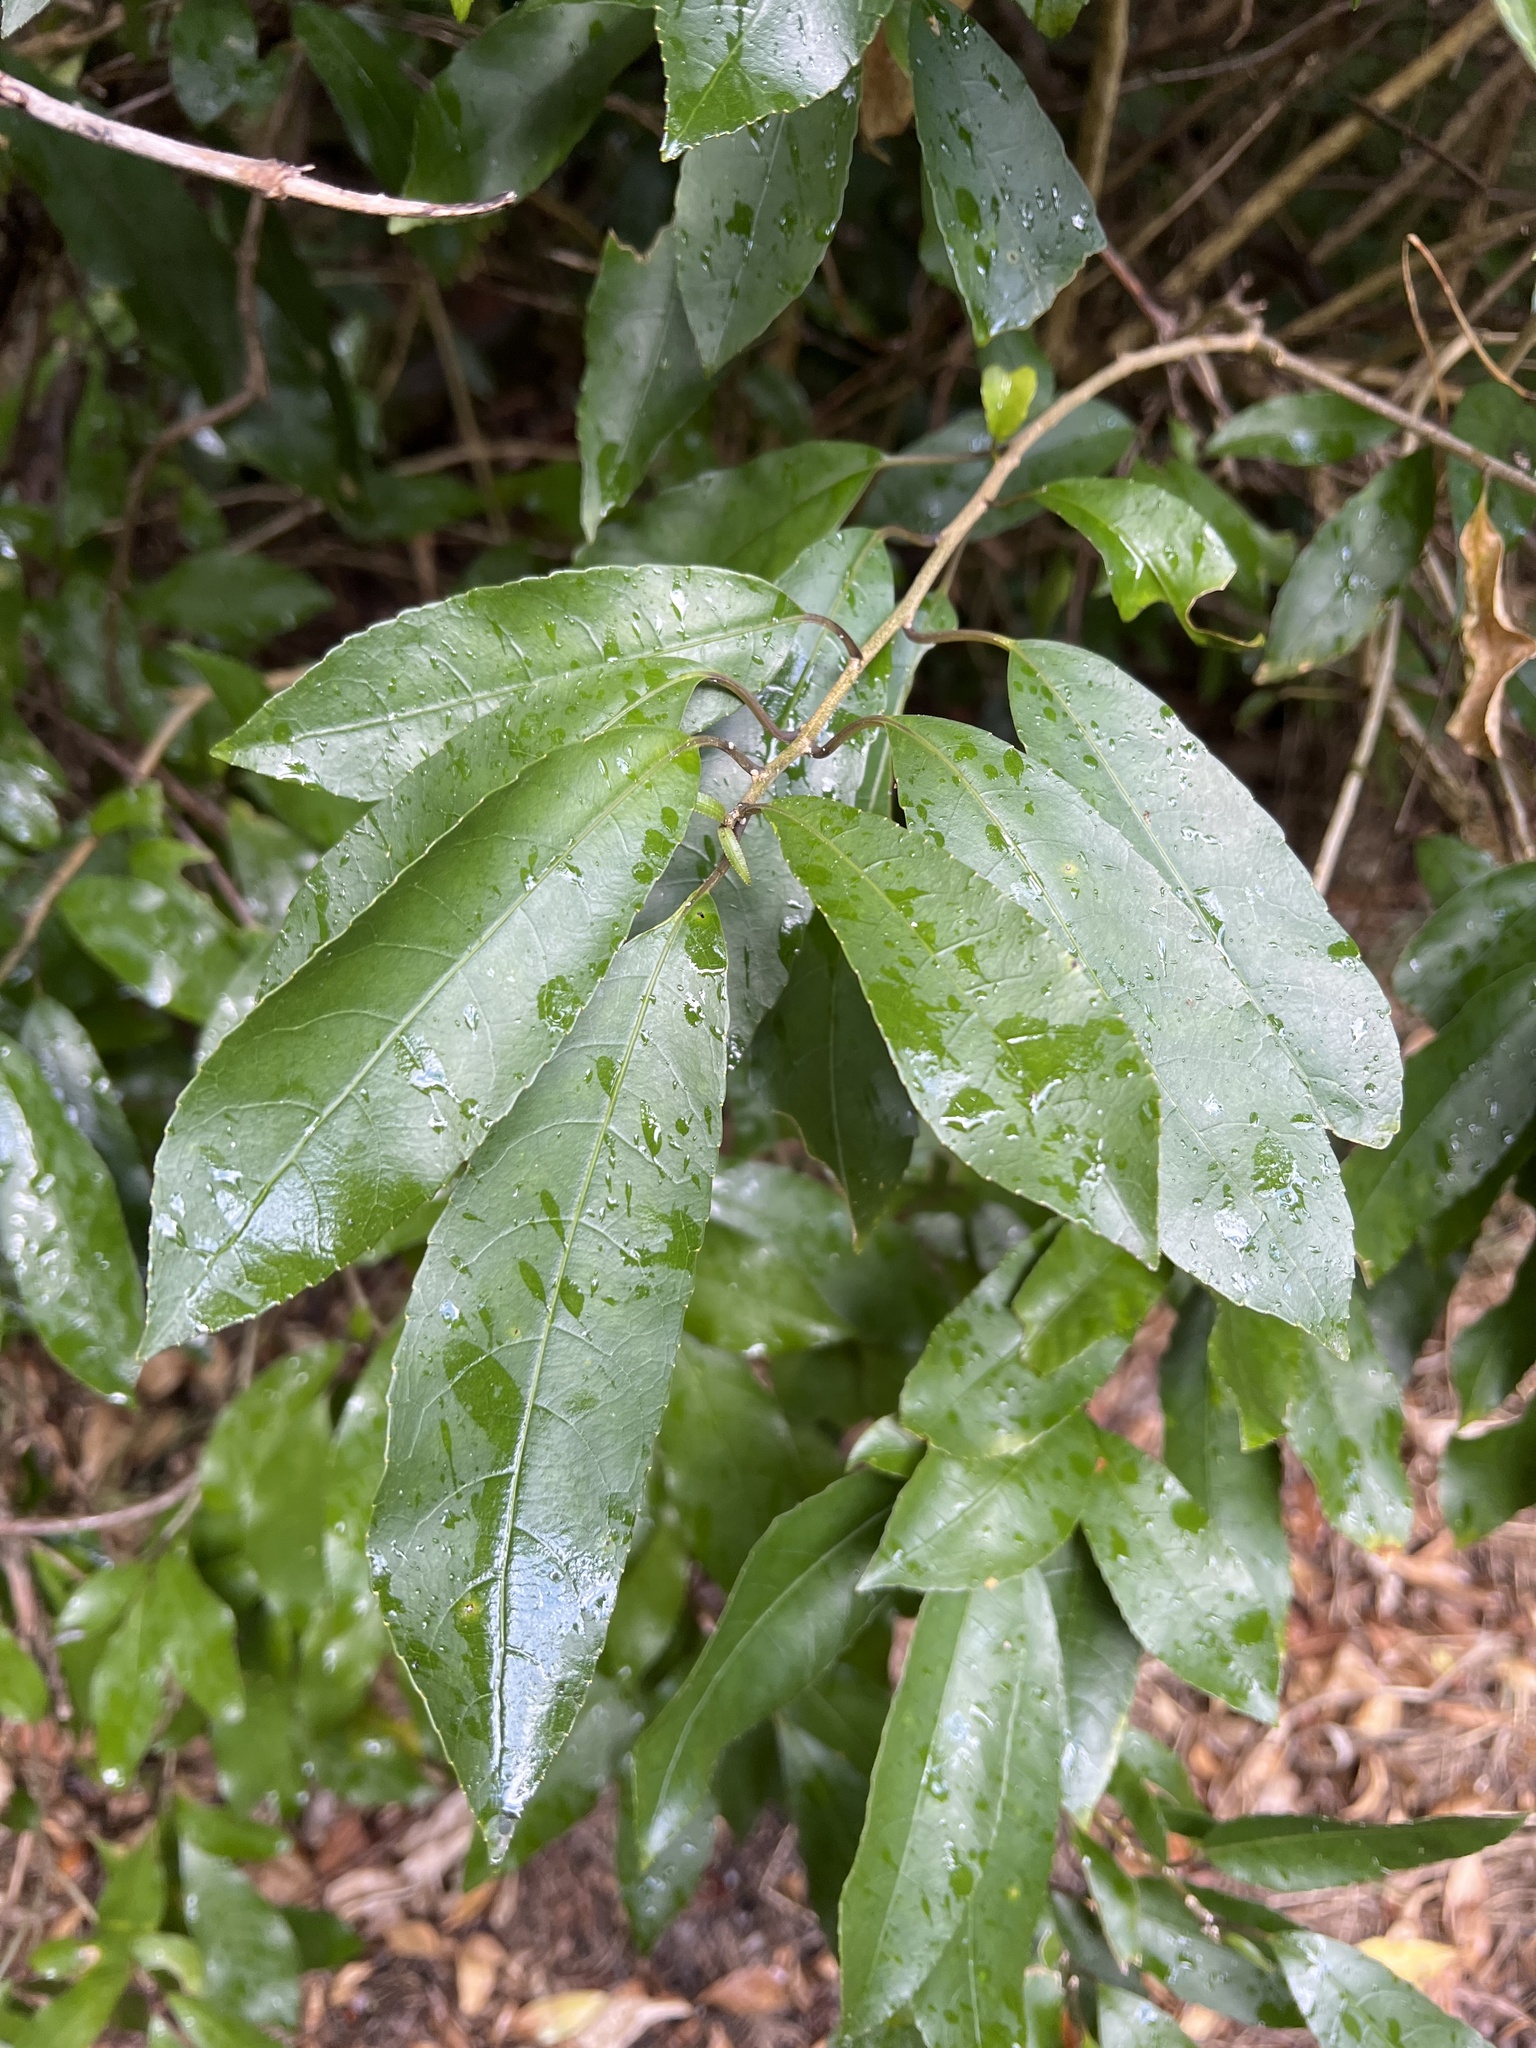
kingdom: Plantae
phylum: Tracheophyta
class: Magnoliopsida
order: Malpighiales
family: Violaceae
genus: Melicytus
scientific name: Melicytus ramiflorus
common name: Mahoe
